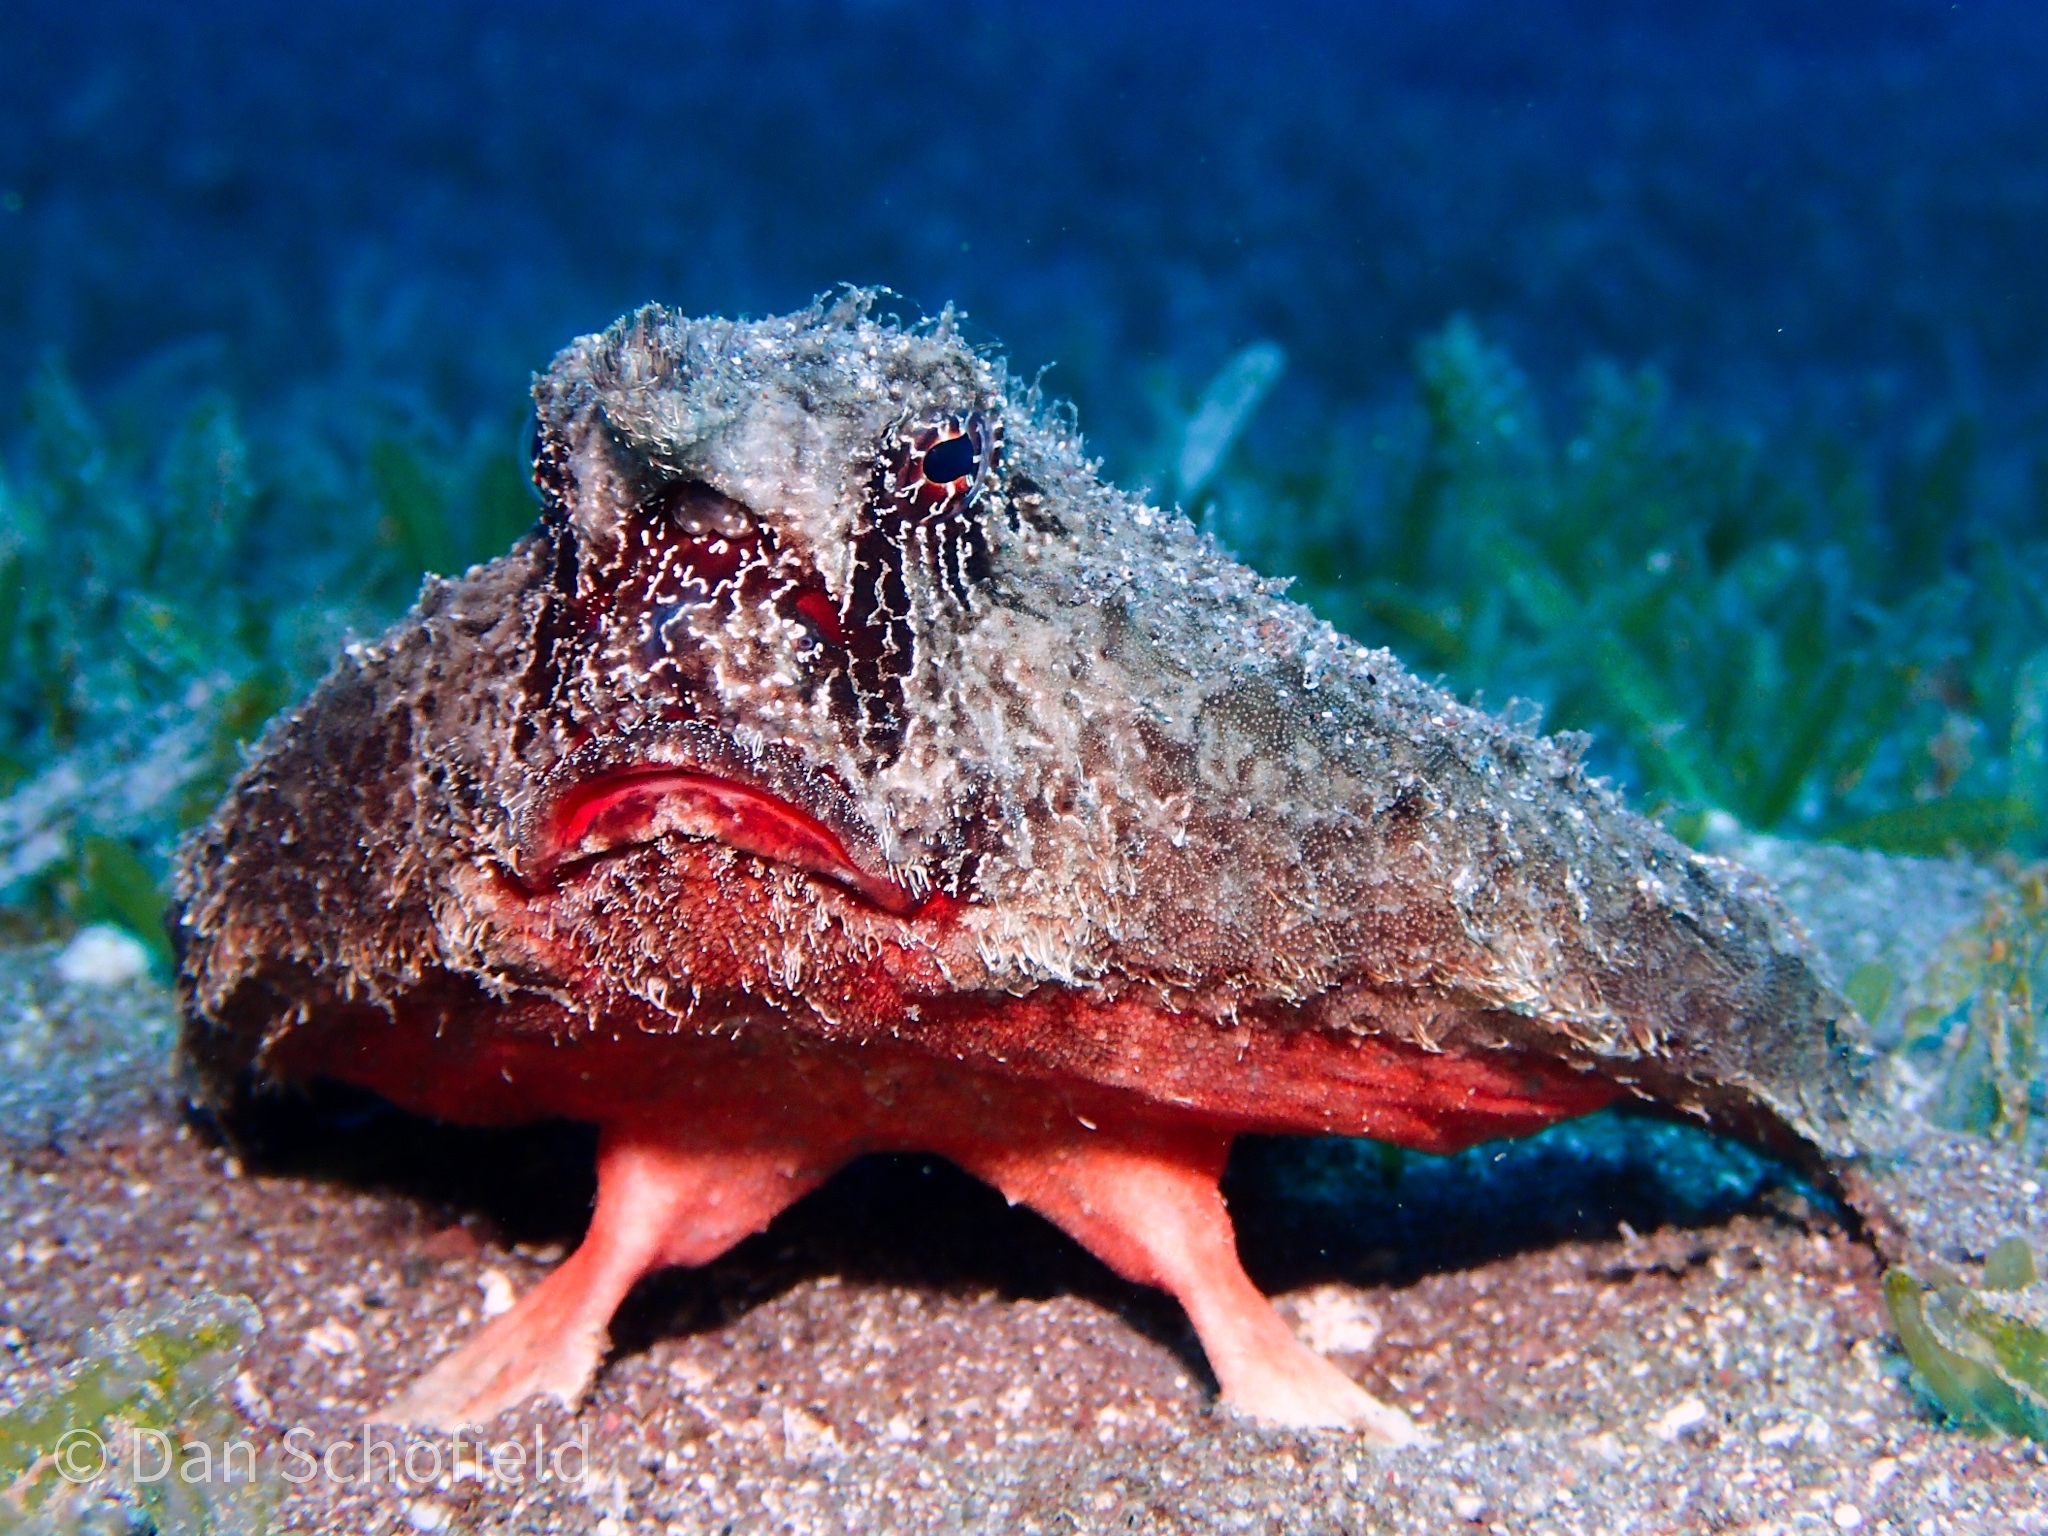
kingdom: Animalia
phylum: Chordata
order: Lophiiformes
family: Ogcocephalidae
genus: Ogcocephalus
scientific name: Ogcocephalus nasutus
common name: Shortnose batfish
